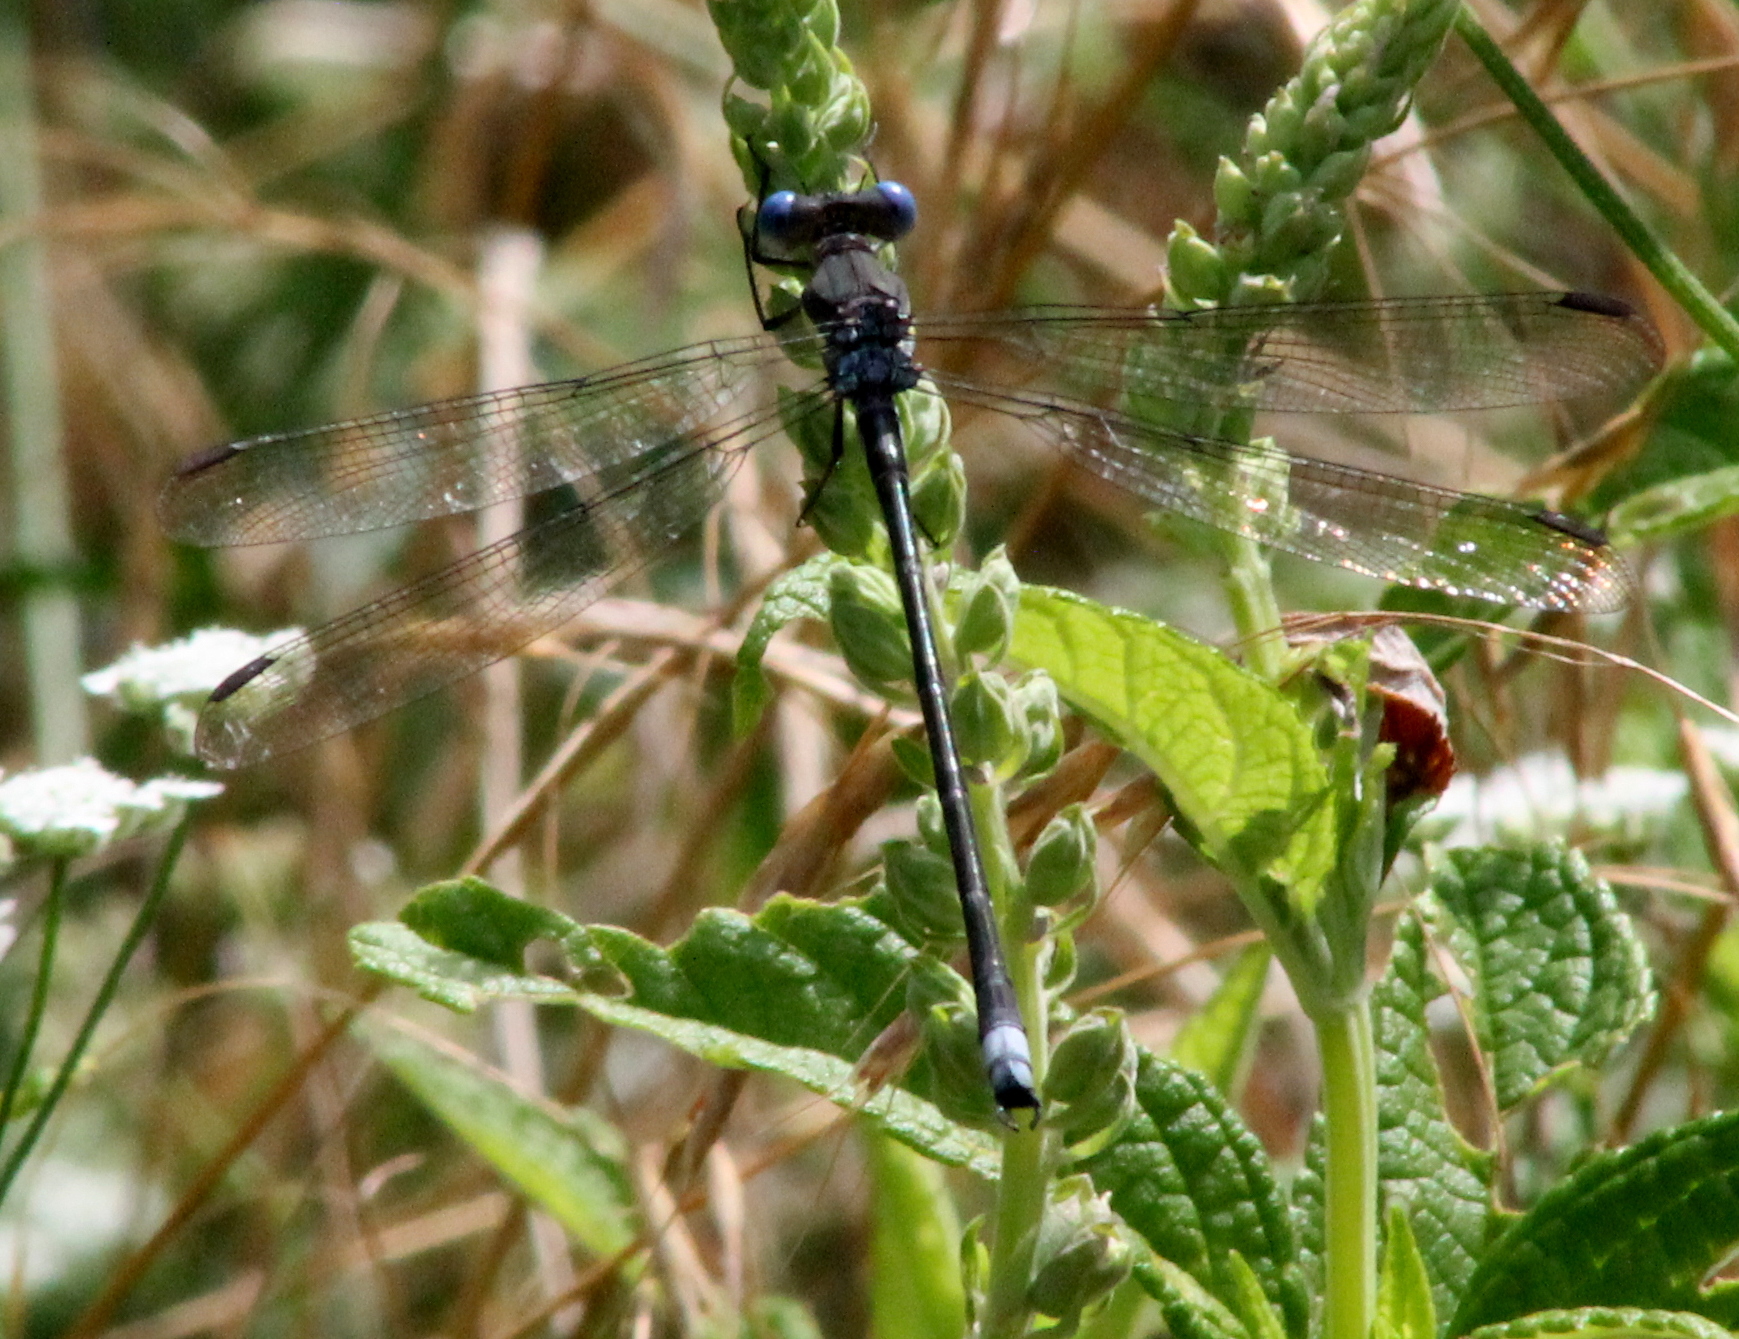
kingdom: Animalia
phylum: Arthropoda
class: Insecta
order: Odonata
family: Lestidae
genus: Archilestes
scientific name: Archilestes grandis
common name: Great spreadwing
